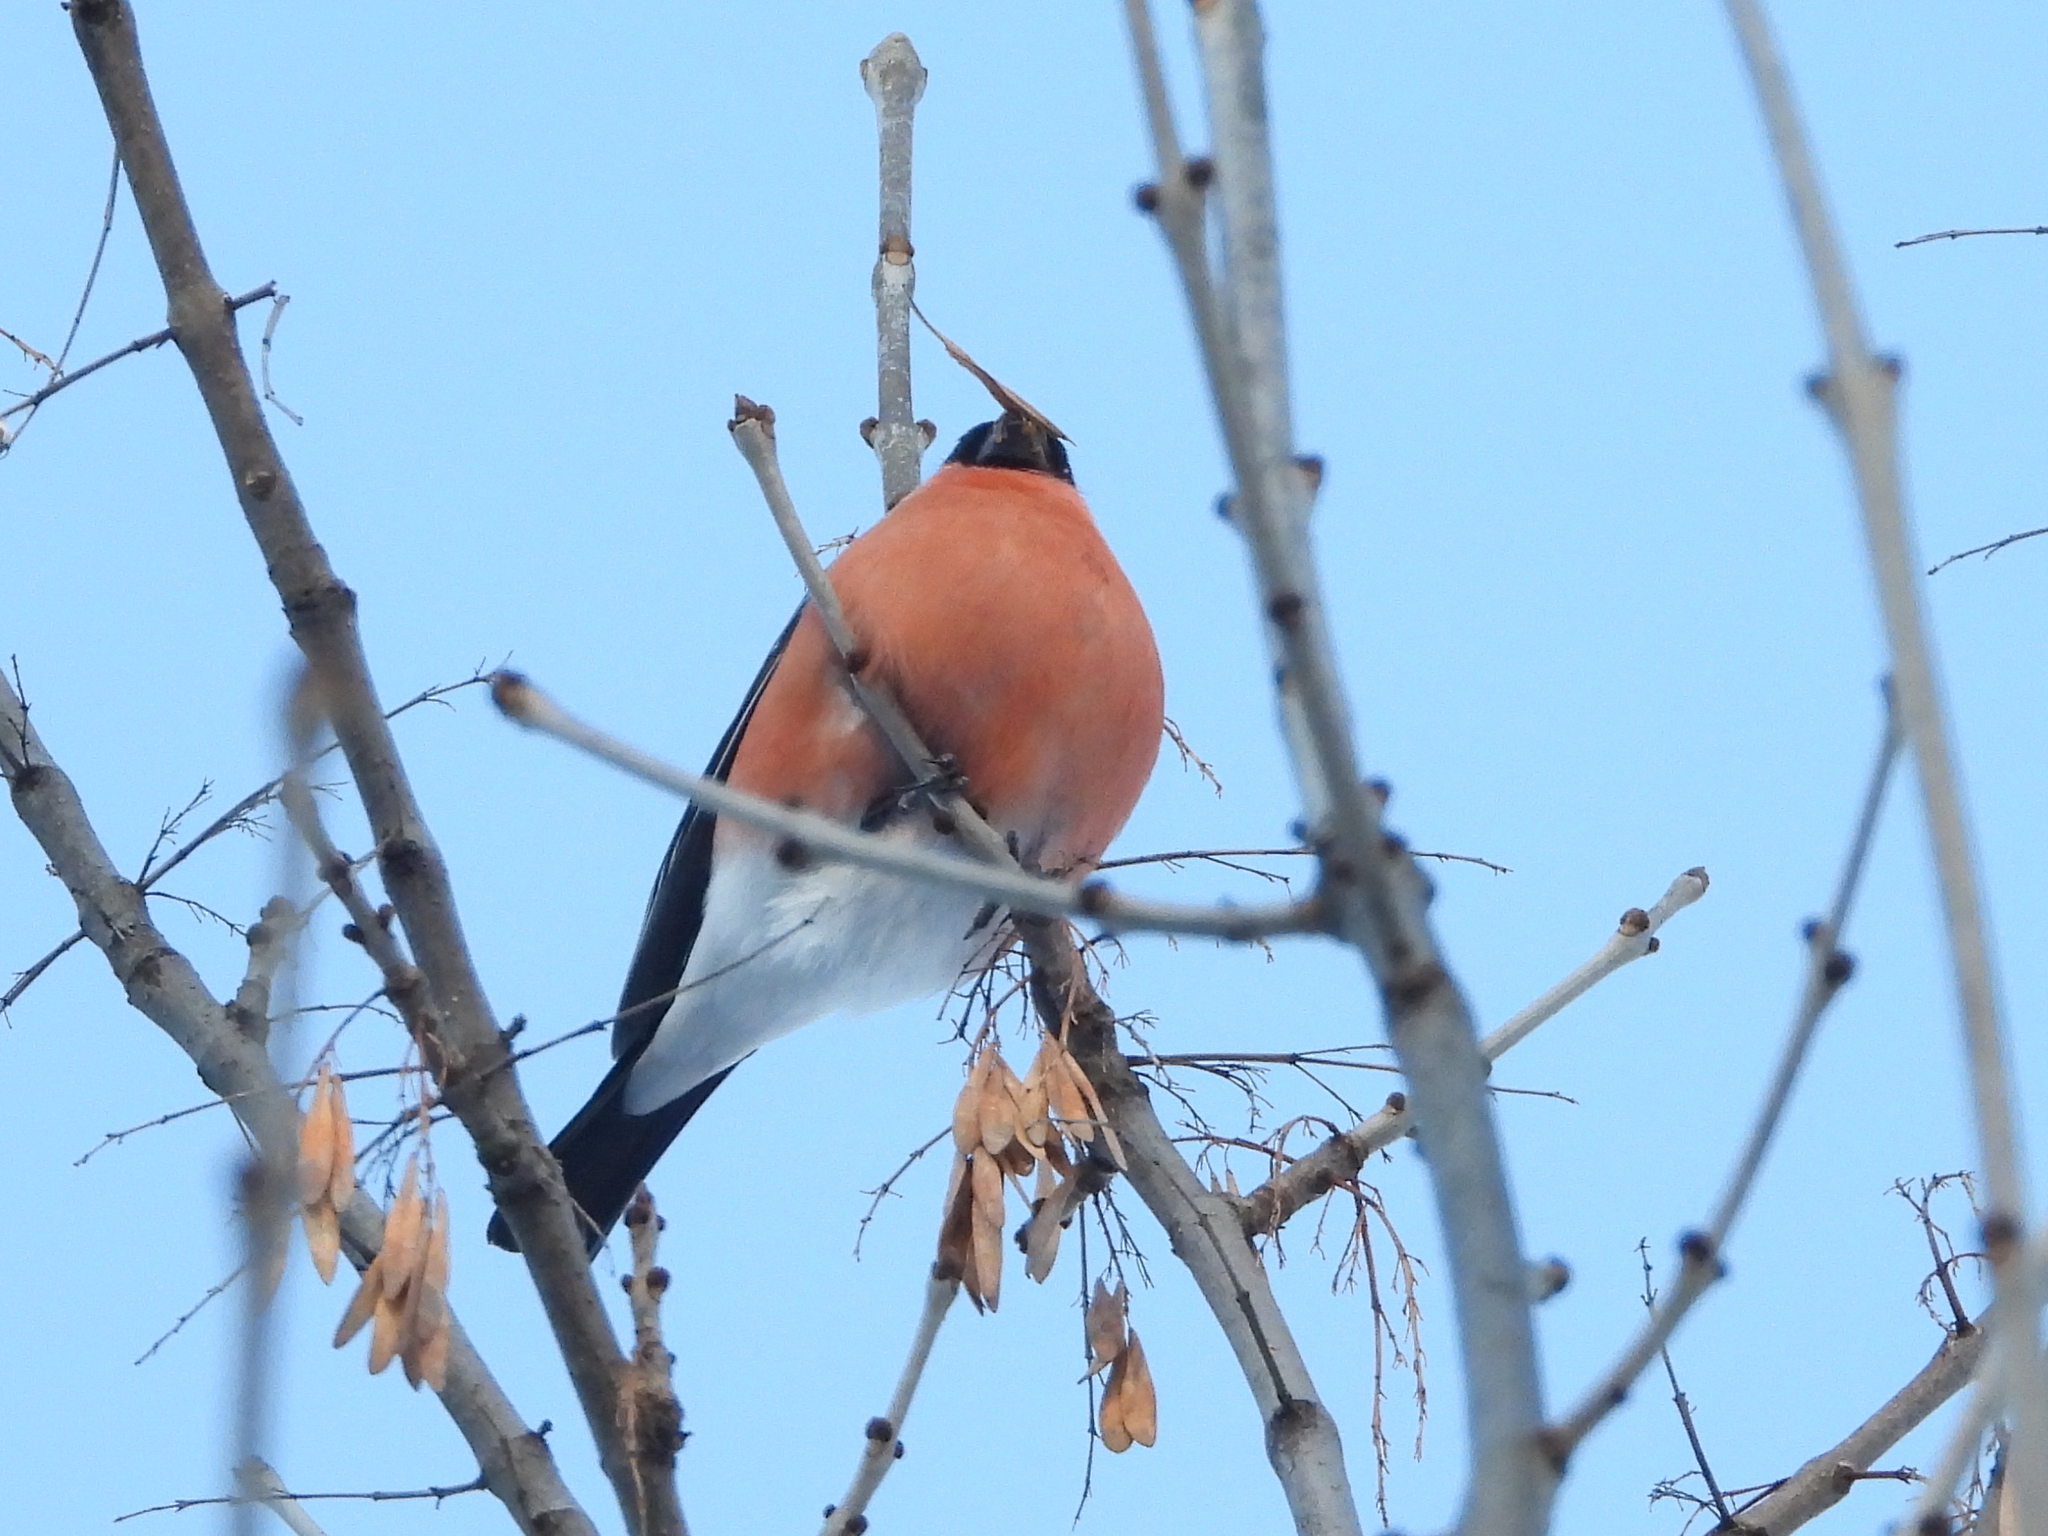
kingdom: Animalia
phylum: Chordata
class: Aves
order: Passeriformes
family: Fringillidae
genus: Pyrrhula
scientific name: Pyrrhula pyrrhula
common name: Eurasian bullfinch
